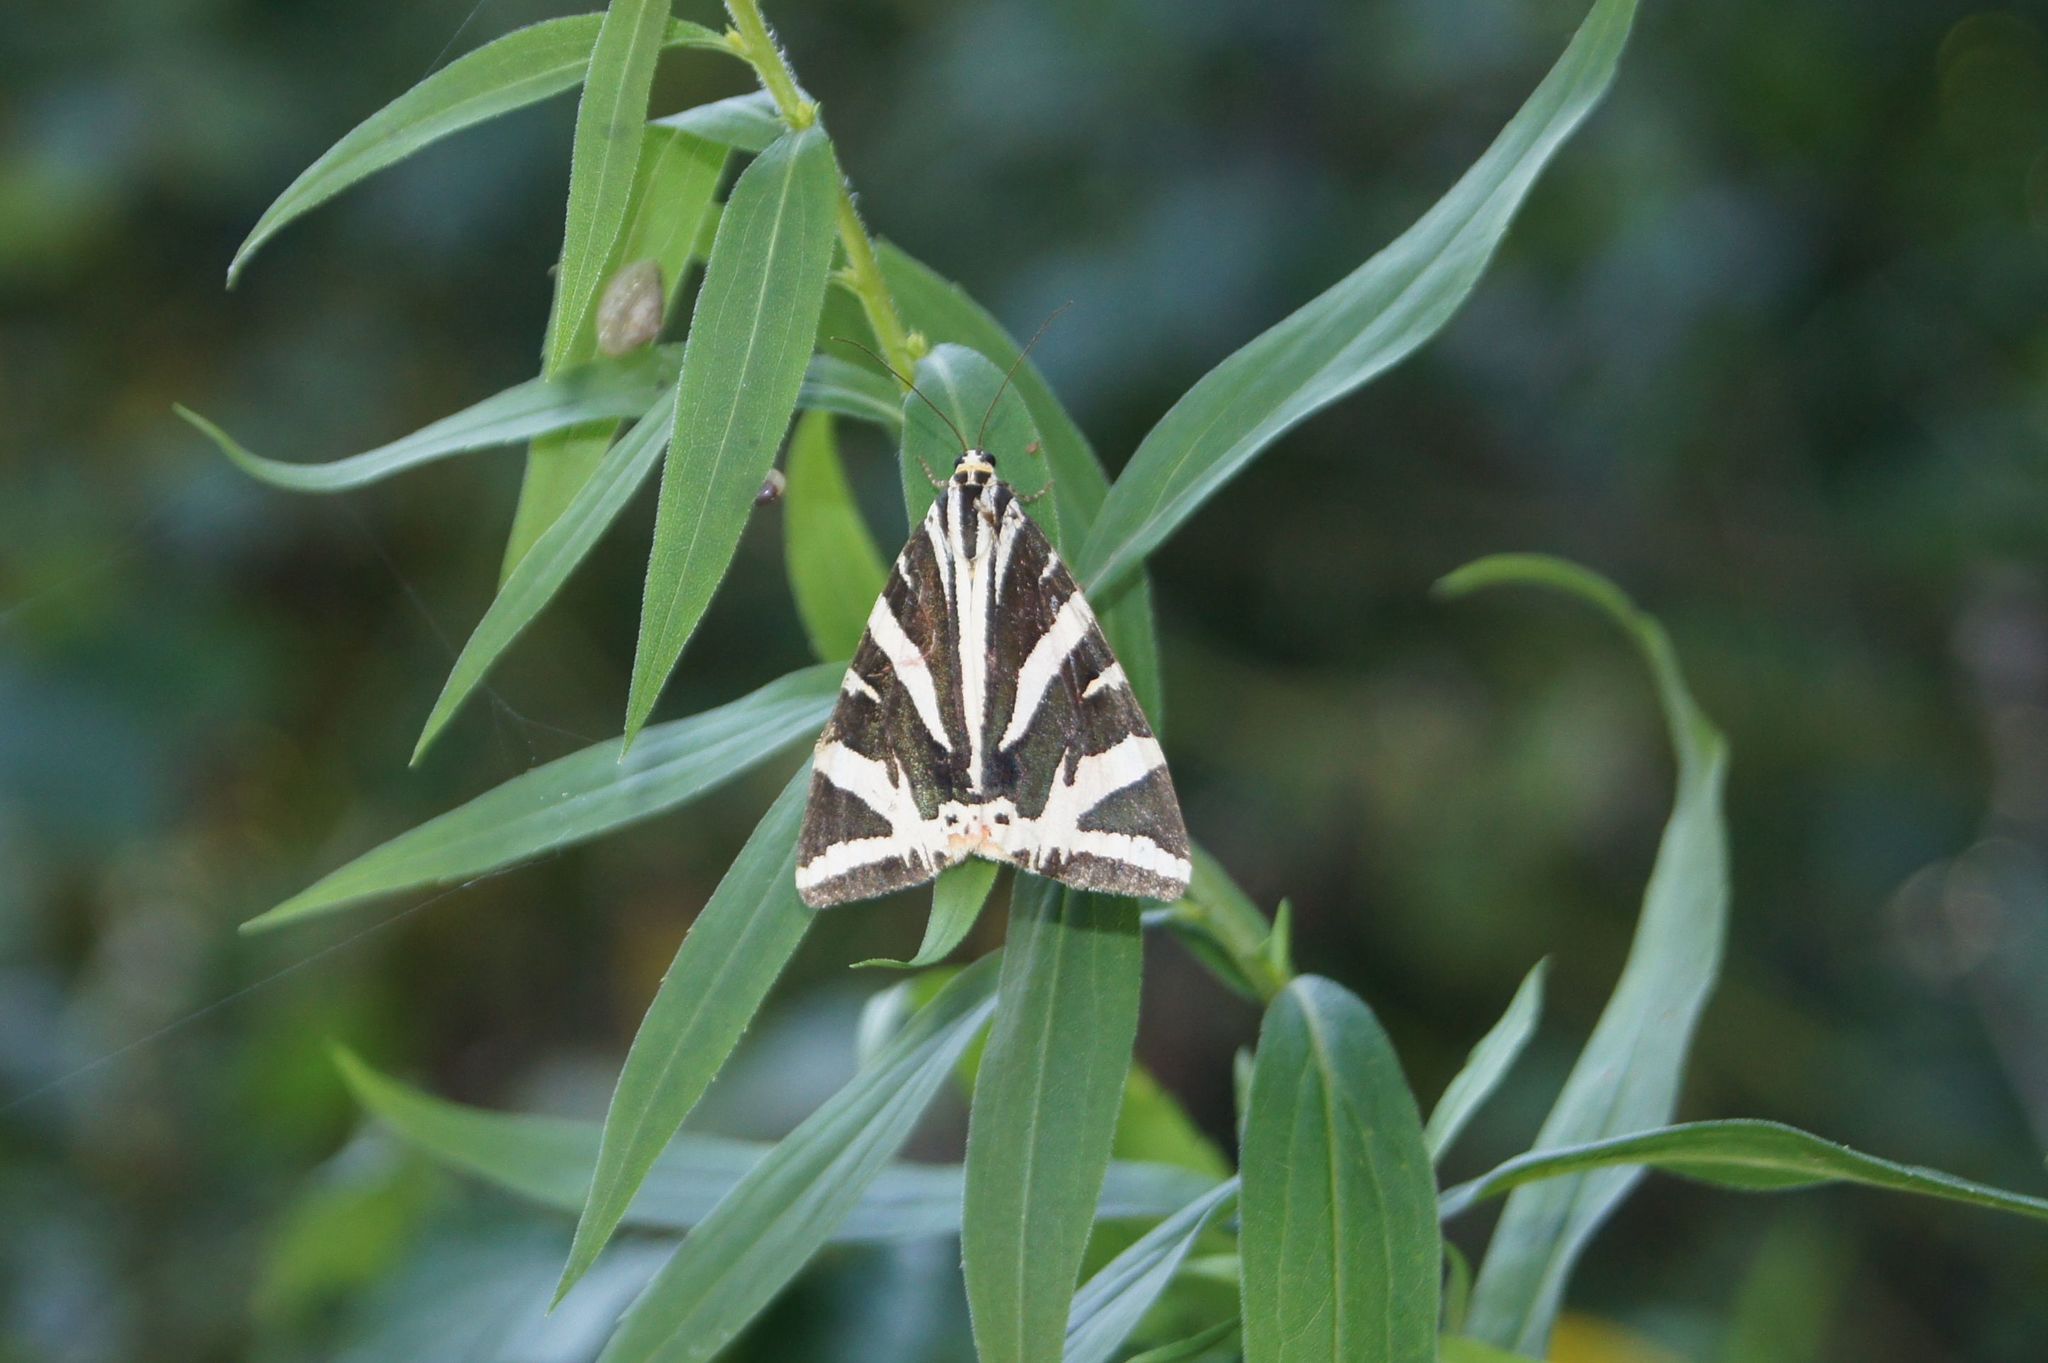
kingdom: Animalia
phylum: Arthropoda
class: Insecta
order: Lepidoptera
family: Erebidae
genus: Euplagia
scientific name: Euplagia quadripunctaria
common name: Jersey tiger
